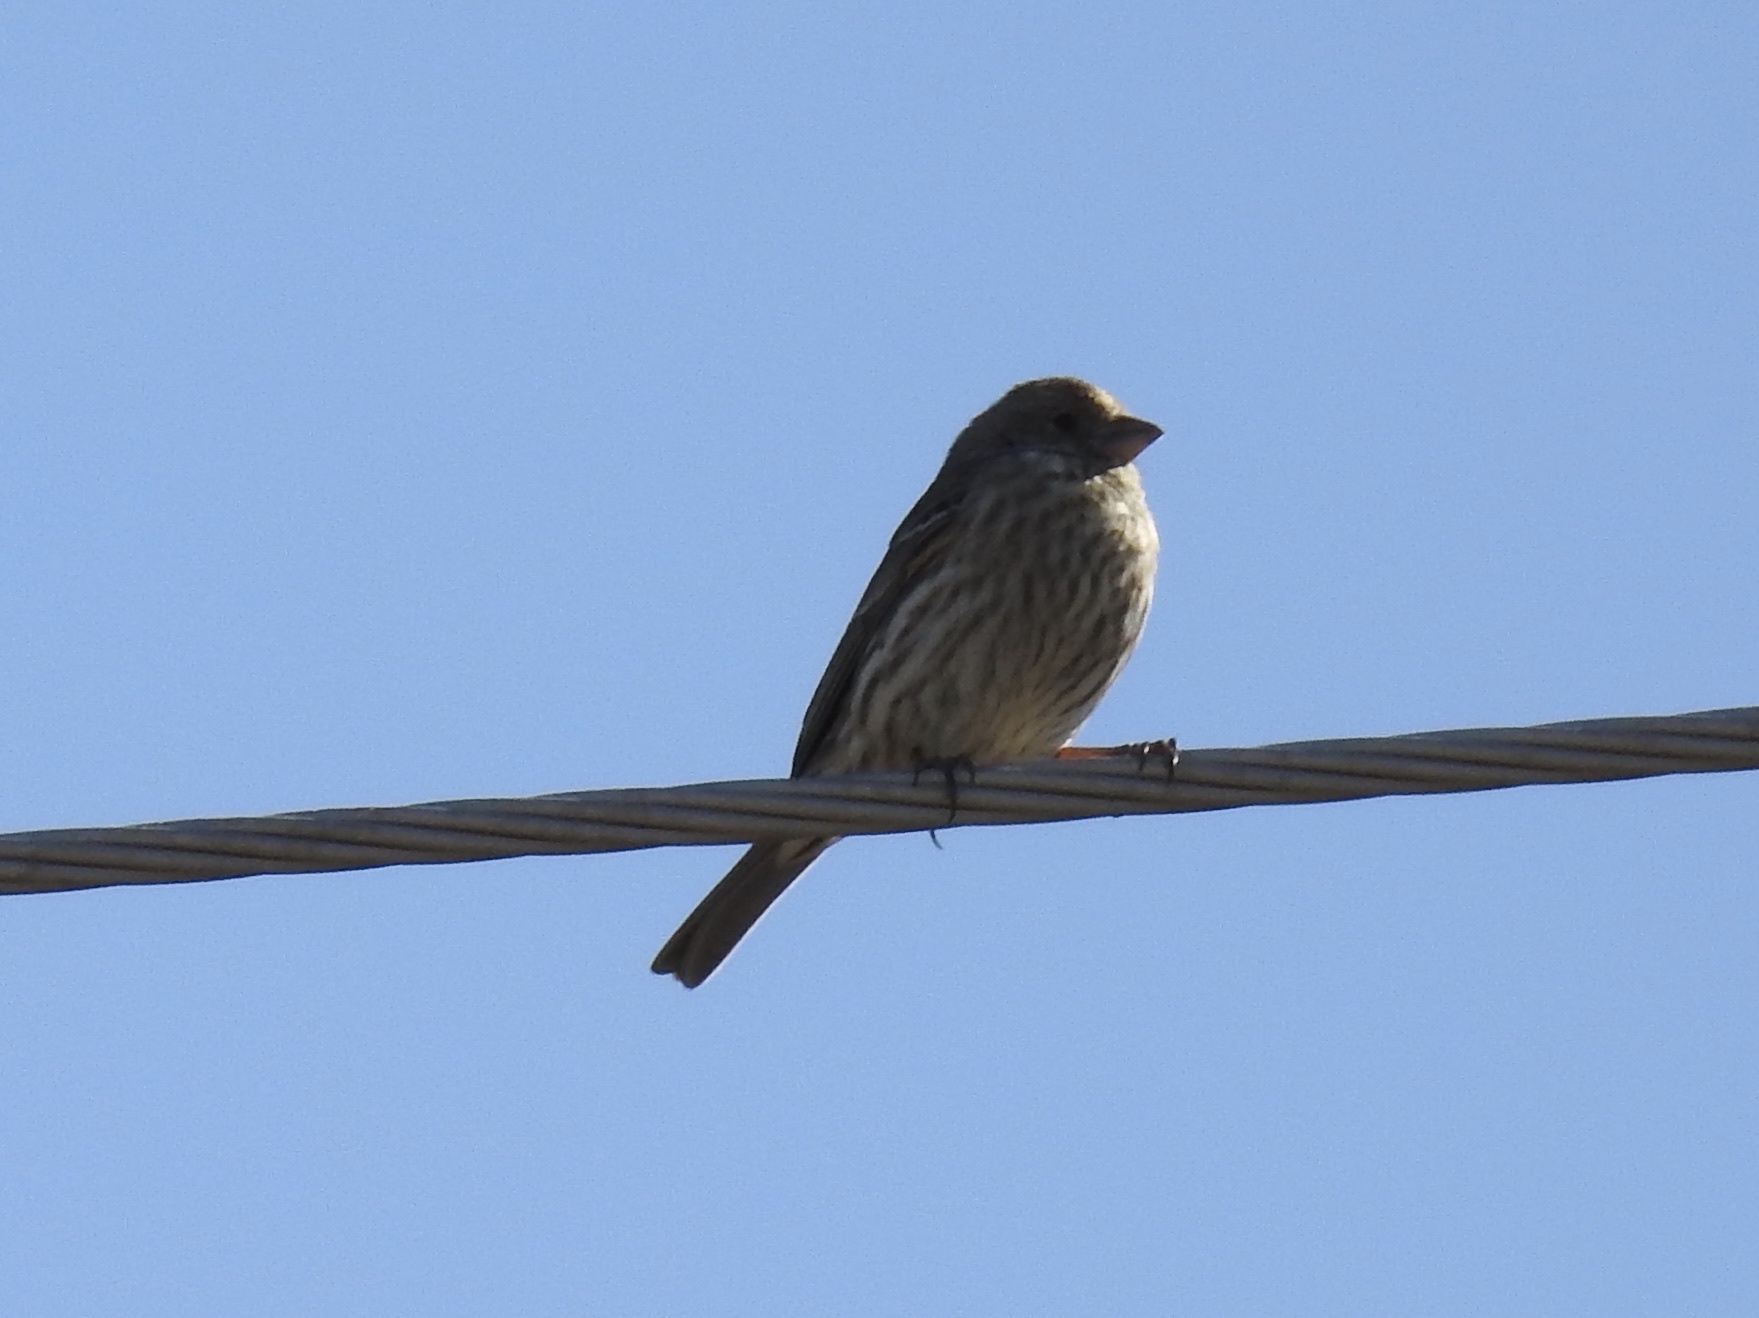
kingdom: Animalia
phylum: Chordata
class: Aves
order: Passeriformes
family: Fringillidae
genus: Haemorhous
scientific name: Haemorhous mexicanus
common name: House finch
